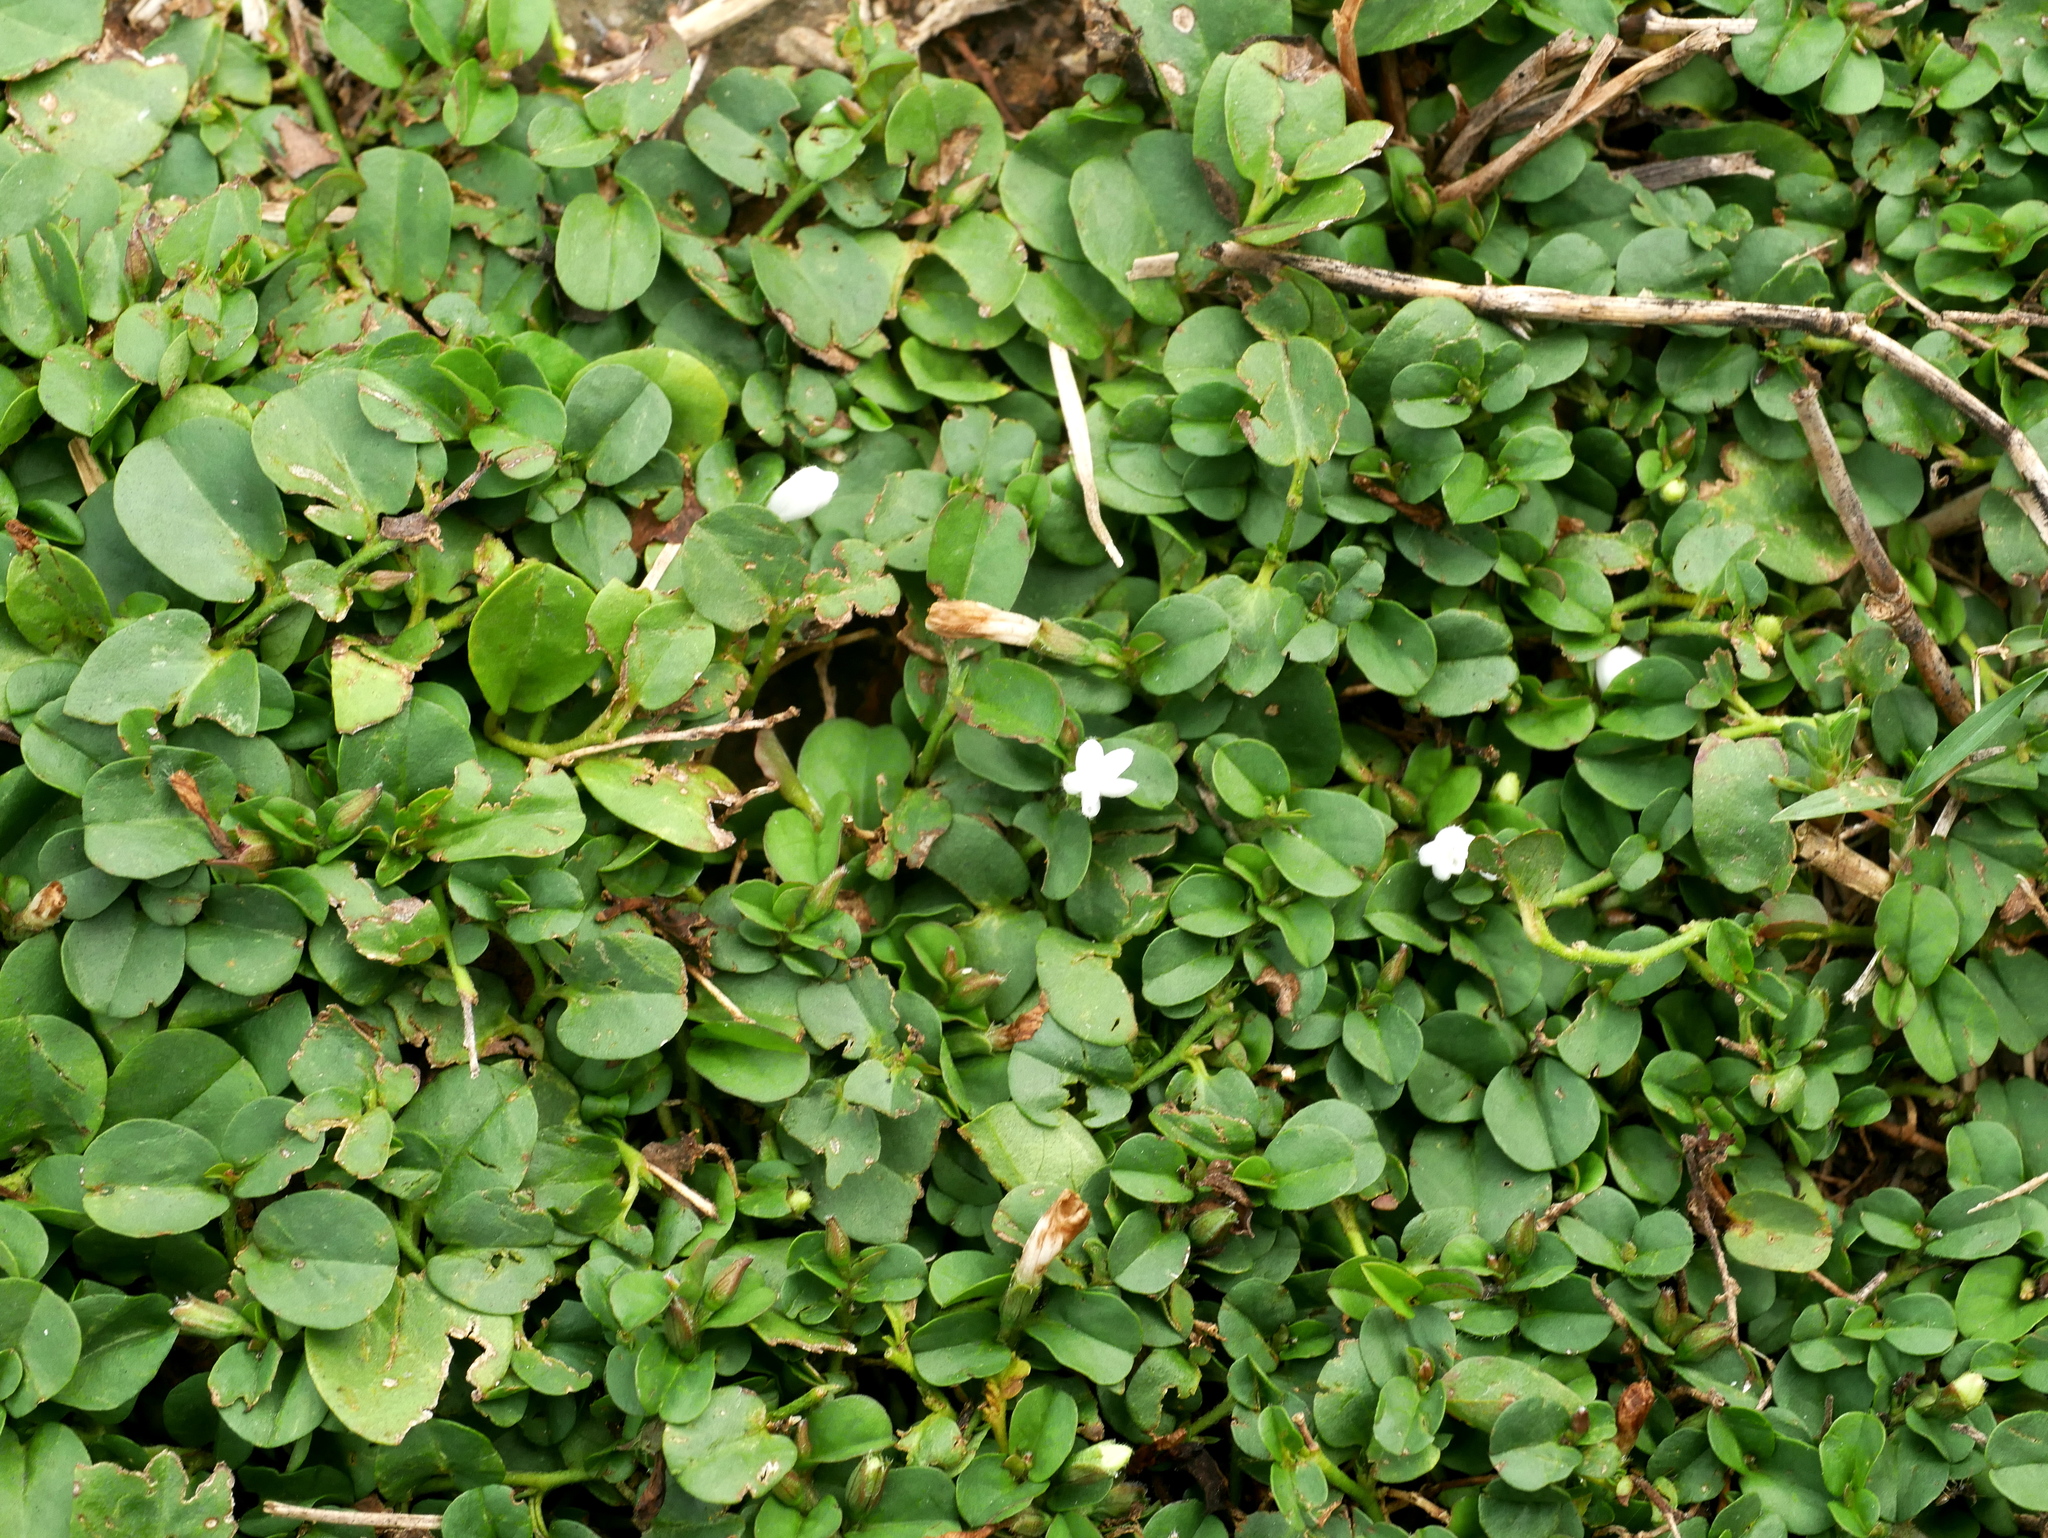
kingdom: Plantae
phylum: Tracheophyta
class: Magnoliopsida
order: Solanales
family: Convolvulaceae
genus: Evolvulus
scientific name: Evolvulus nummularius
